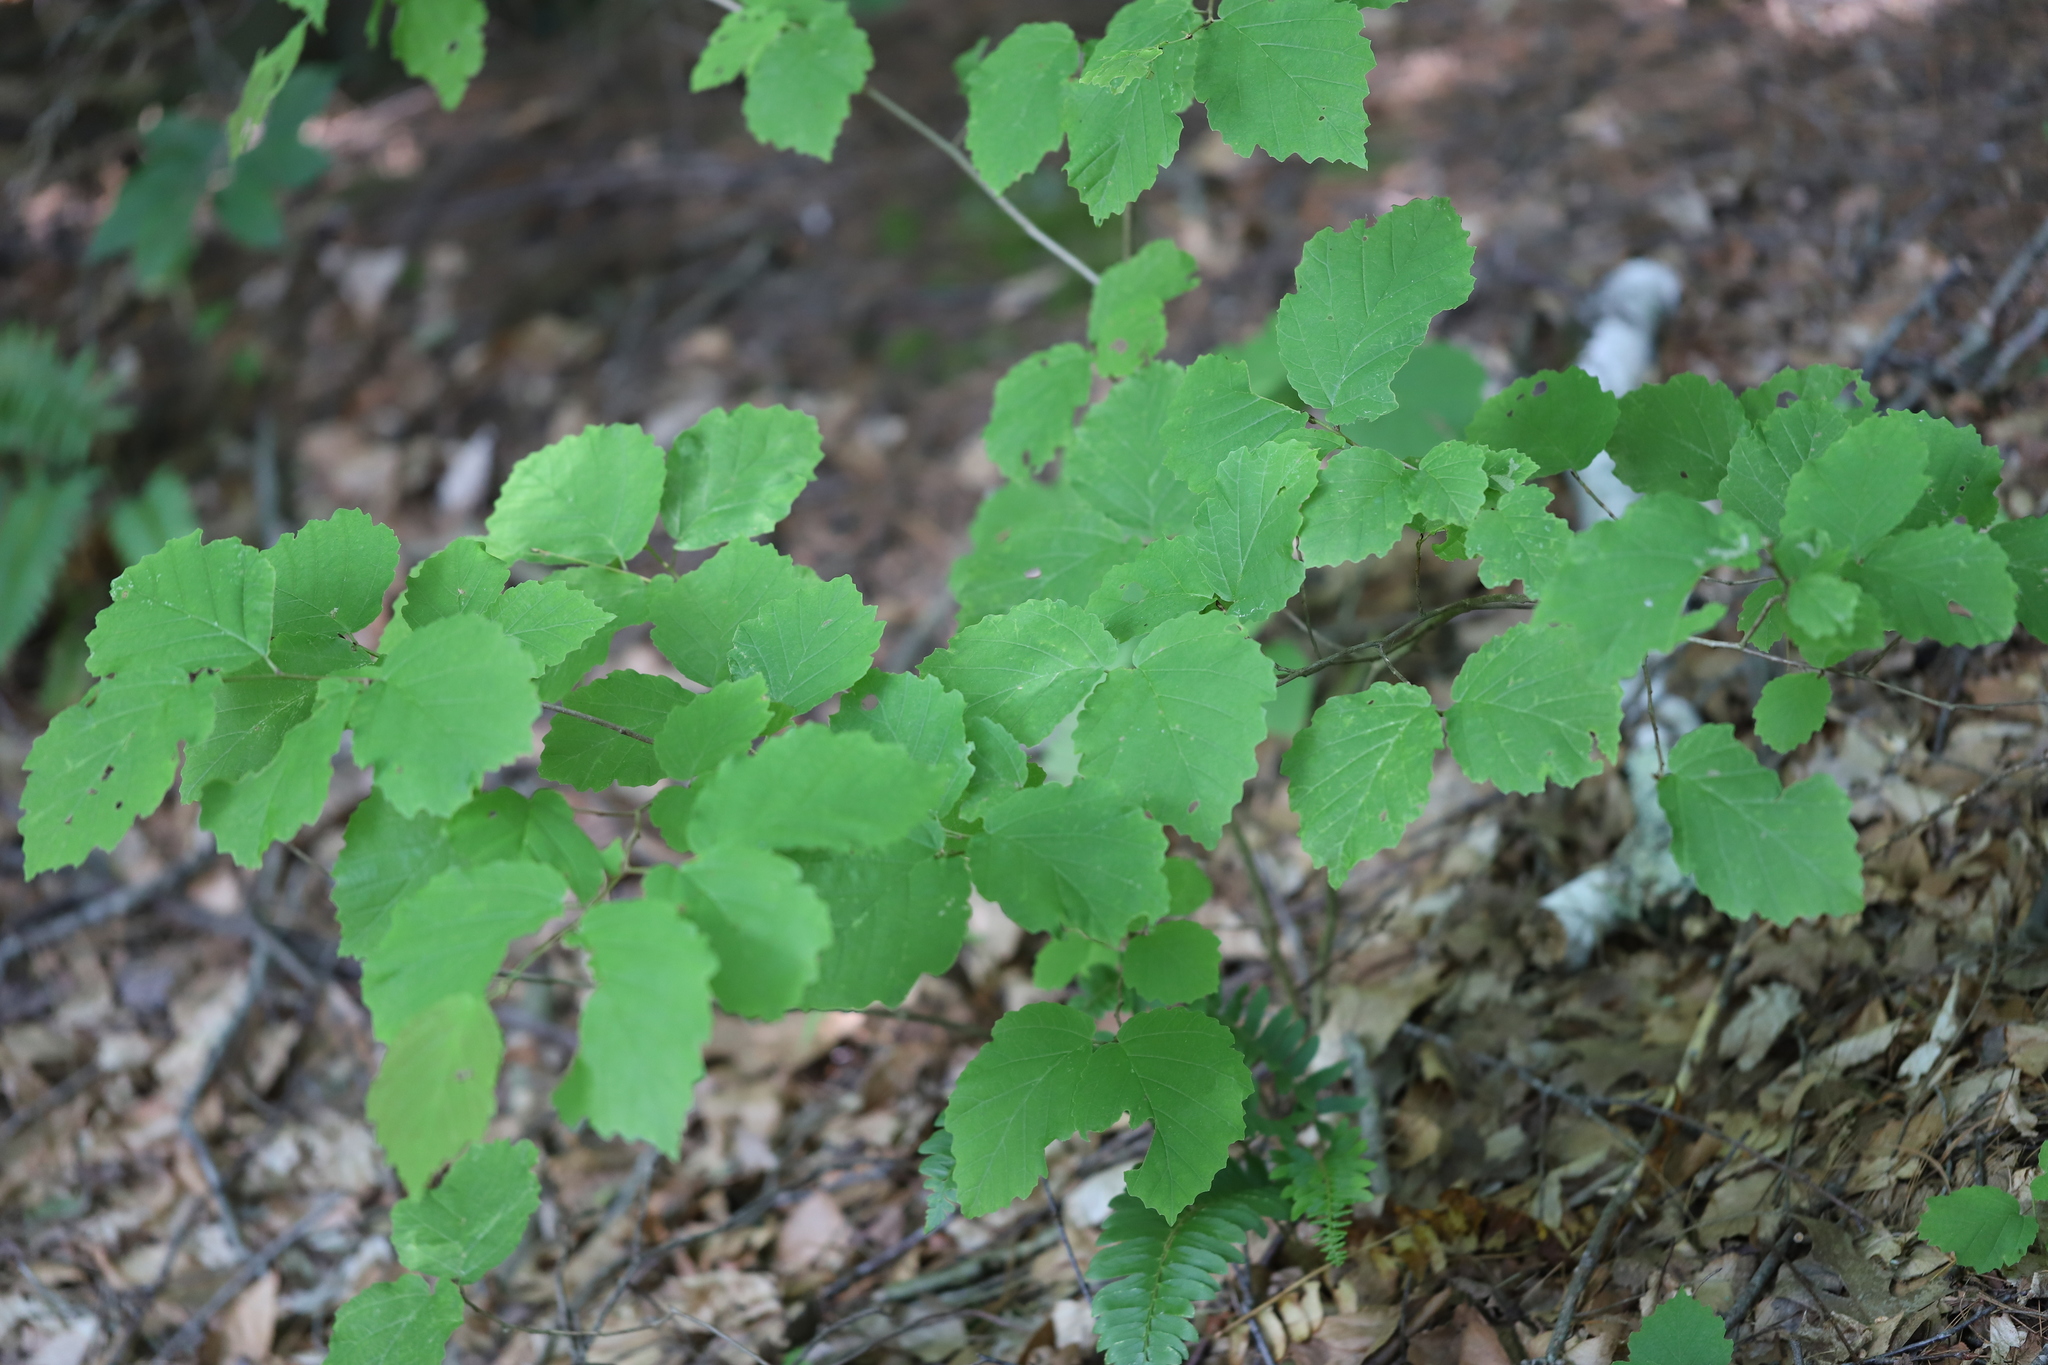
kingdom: Plantae
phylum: Tracheophyta
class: Magnoliopsida
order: Saxifragales
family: Hamamelidaceae
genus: Hamamelis
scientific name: Hamamelis virginiana
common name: Witch-hazel
